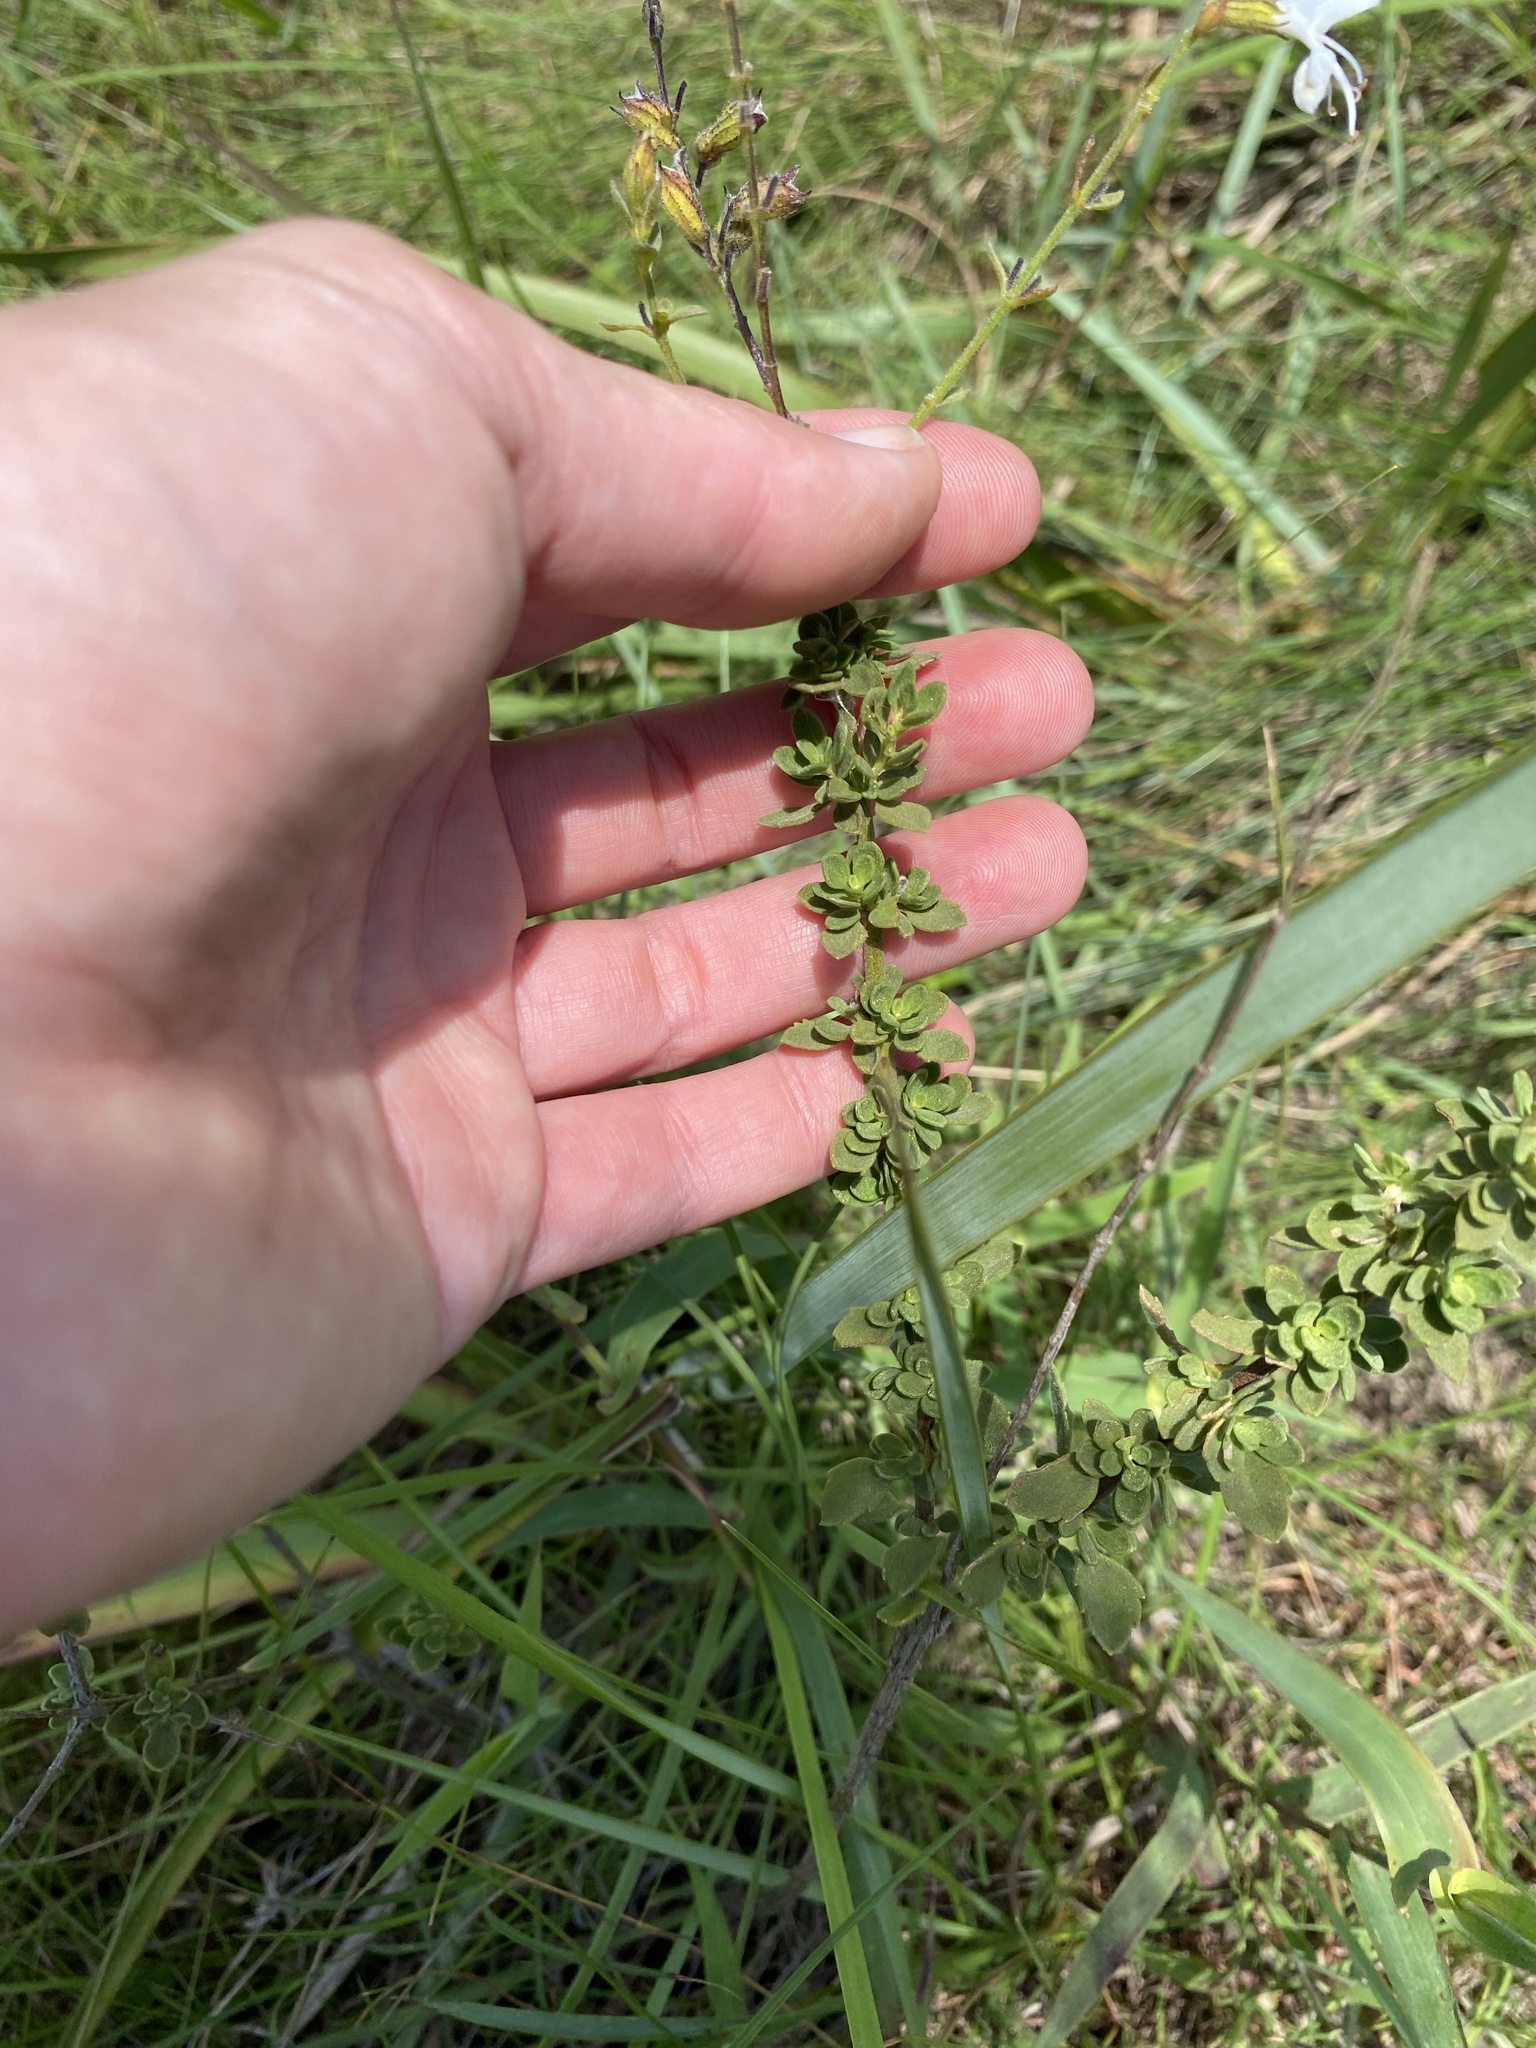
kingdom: Plantae
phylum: Tracheophyta
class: Magnoliopsida
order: Lamiales
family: Lamiaceae
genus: Syncolostemon
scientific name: Syncolostemon parviflorus
